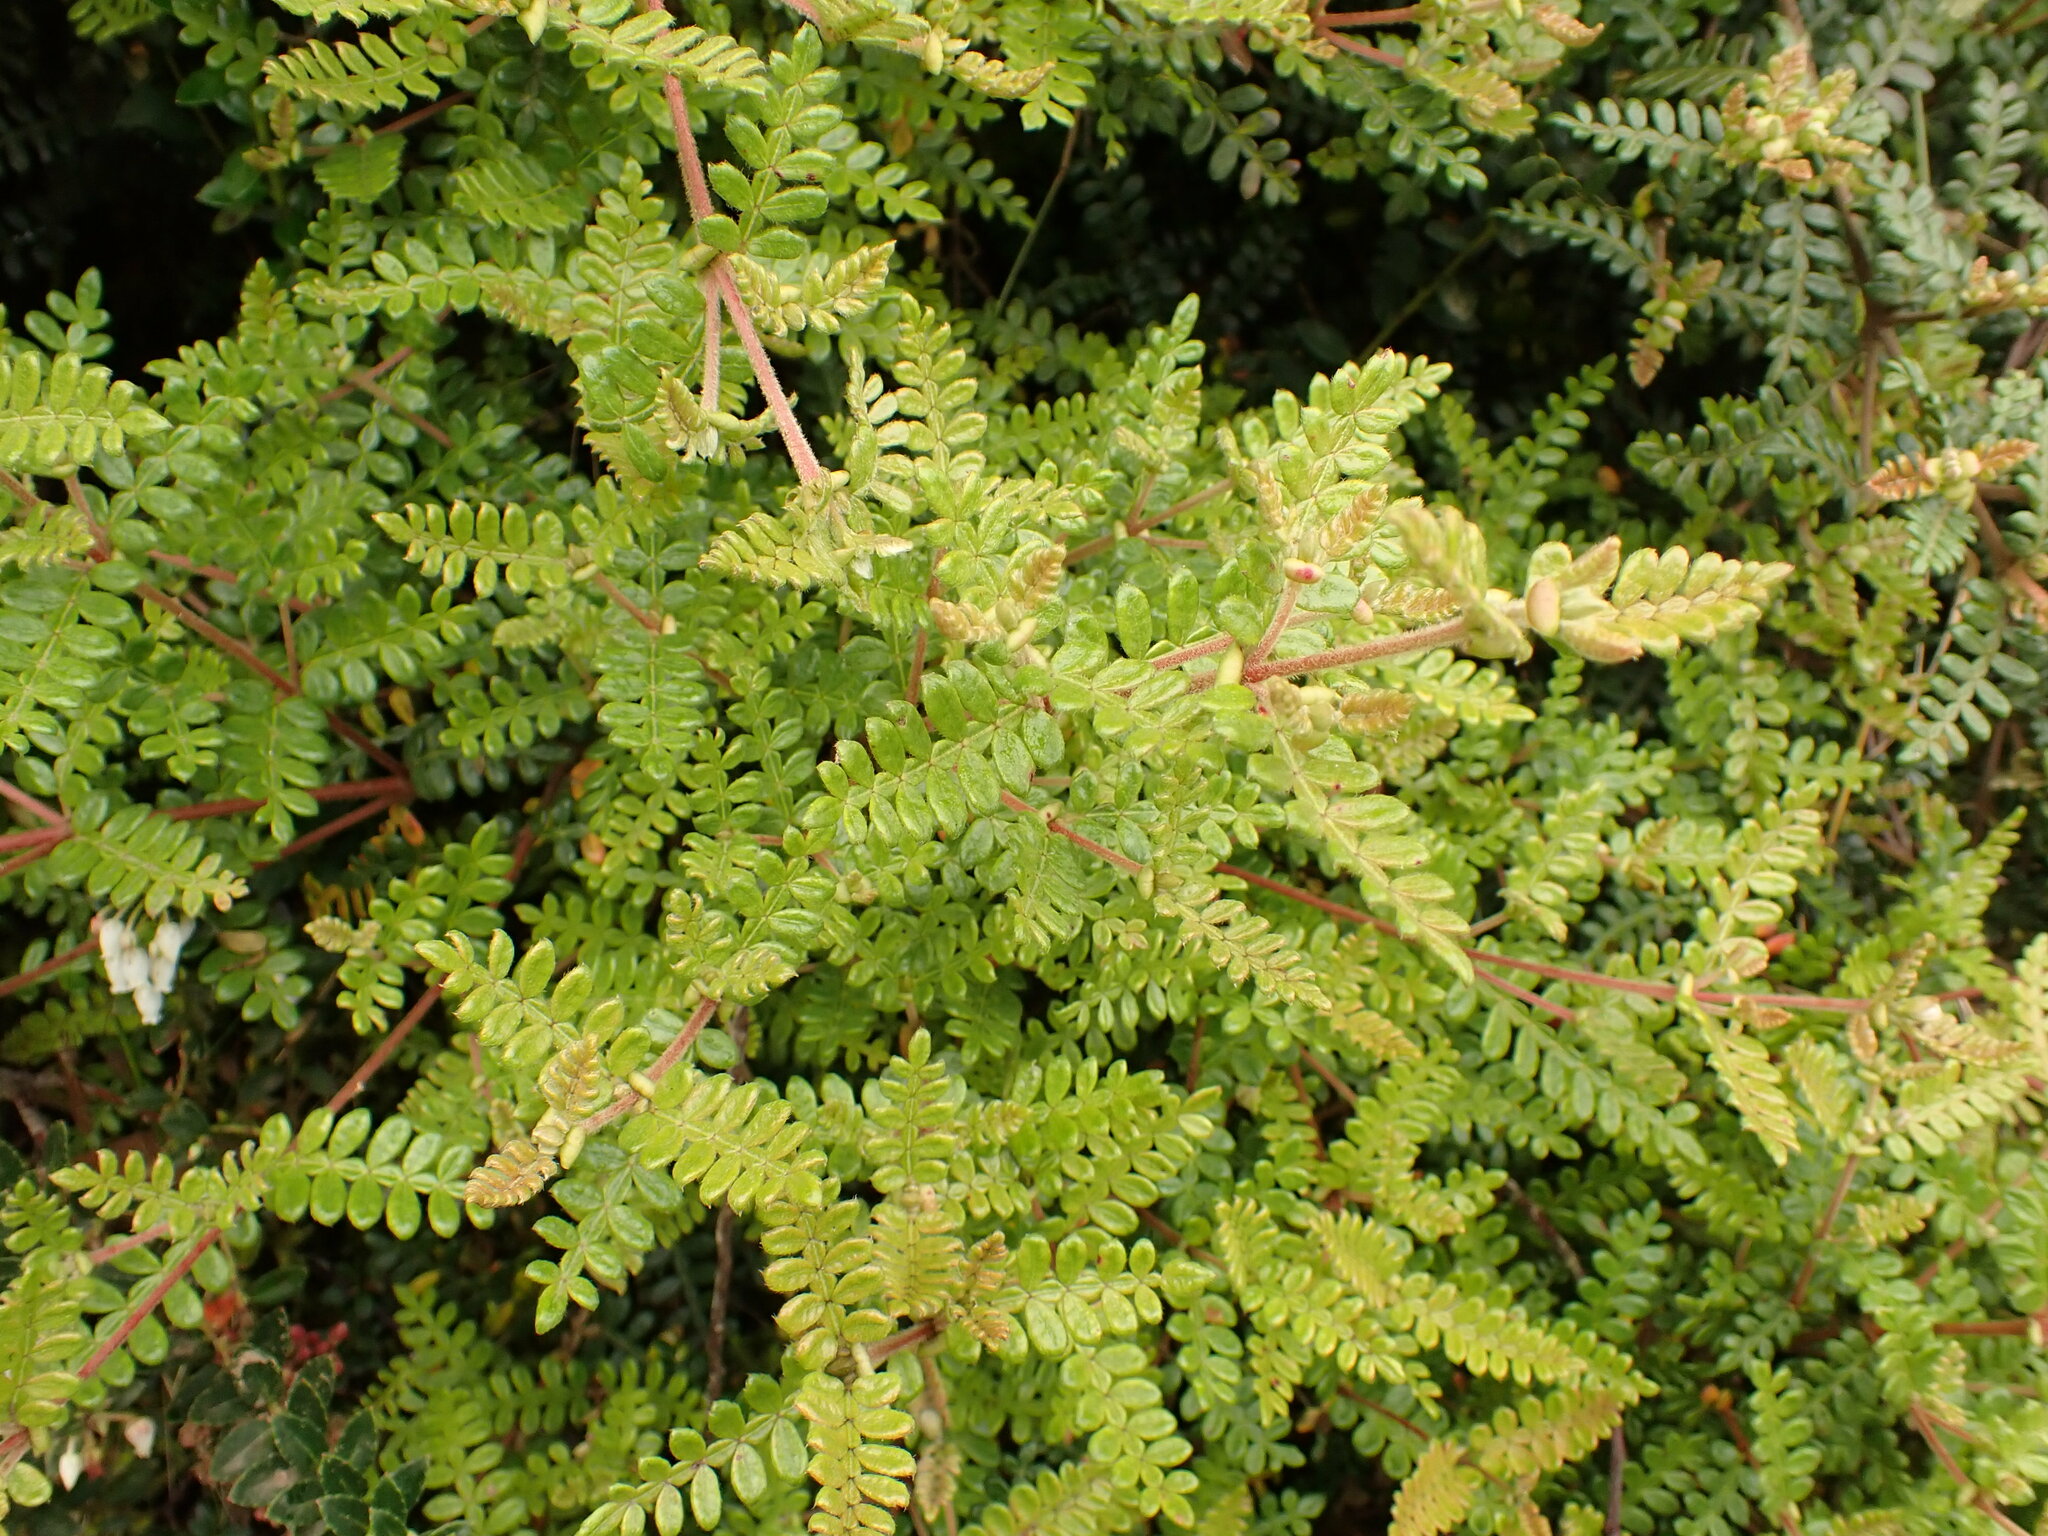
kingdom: Plantae
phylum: Tracheophyta
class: Magnoliopsida
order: Oxalidales
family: Cunoniaceae
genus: Weinmannia
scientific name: Weinmannia tomentosa
